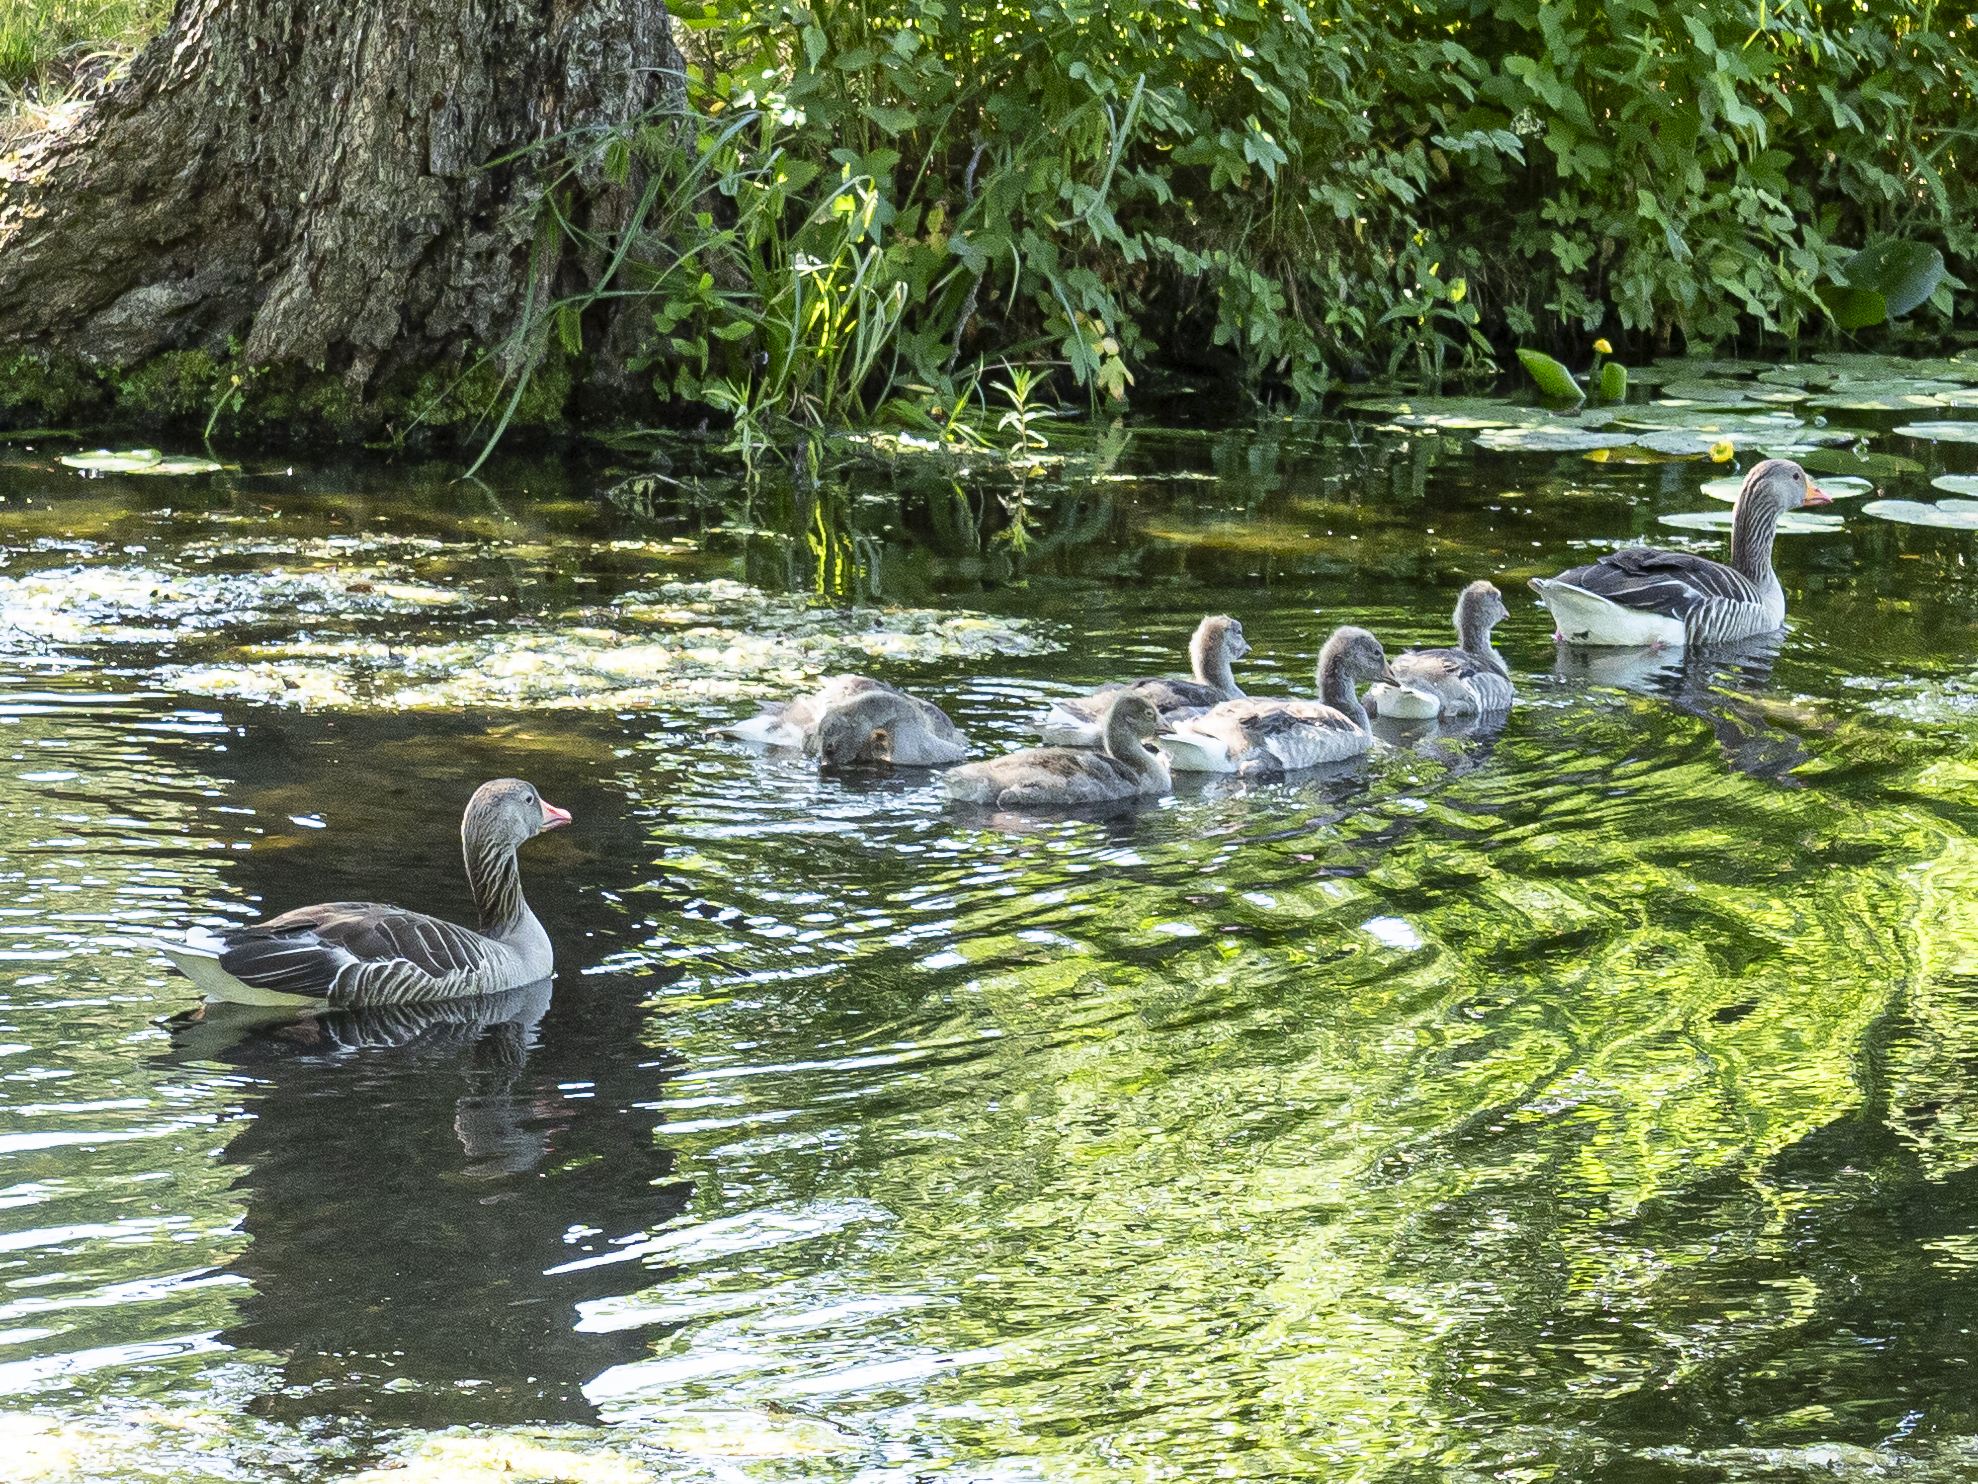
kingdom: Animalia
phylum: Chordata
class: Aves
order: Anseriformes
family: Anatidae
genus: Anser
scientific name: Anser anser
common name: Greylag goose
